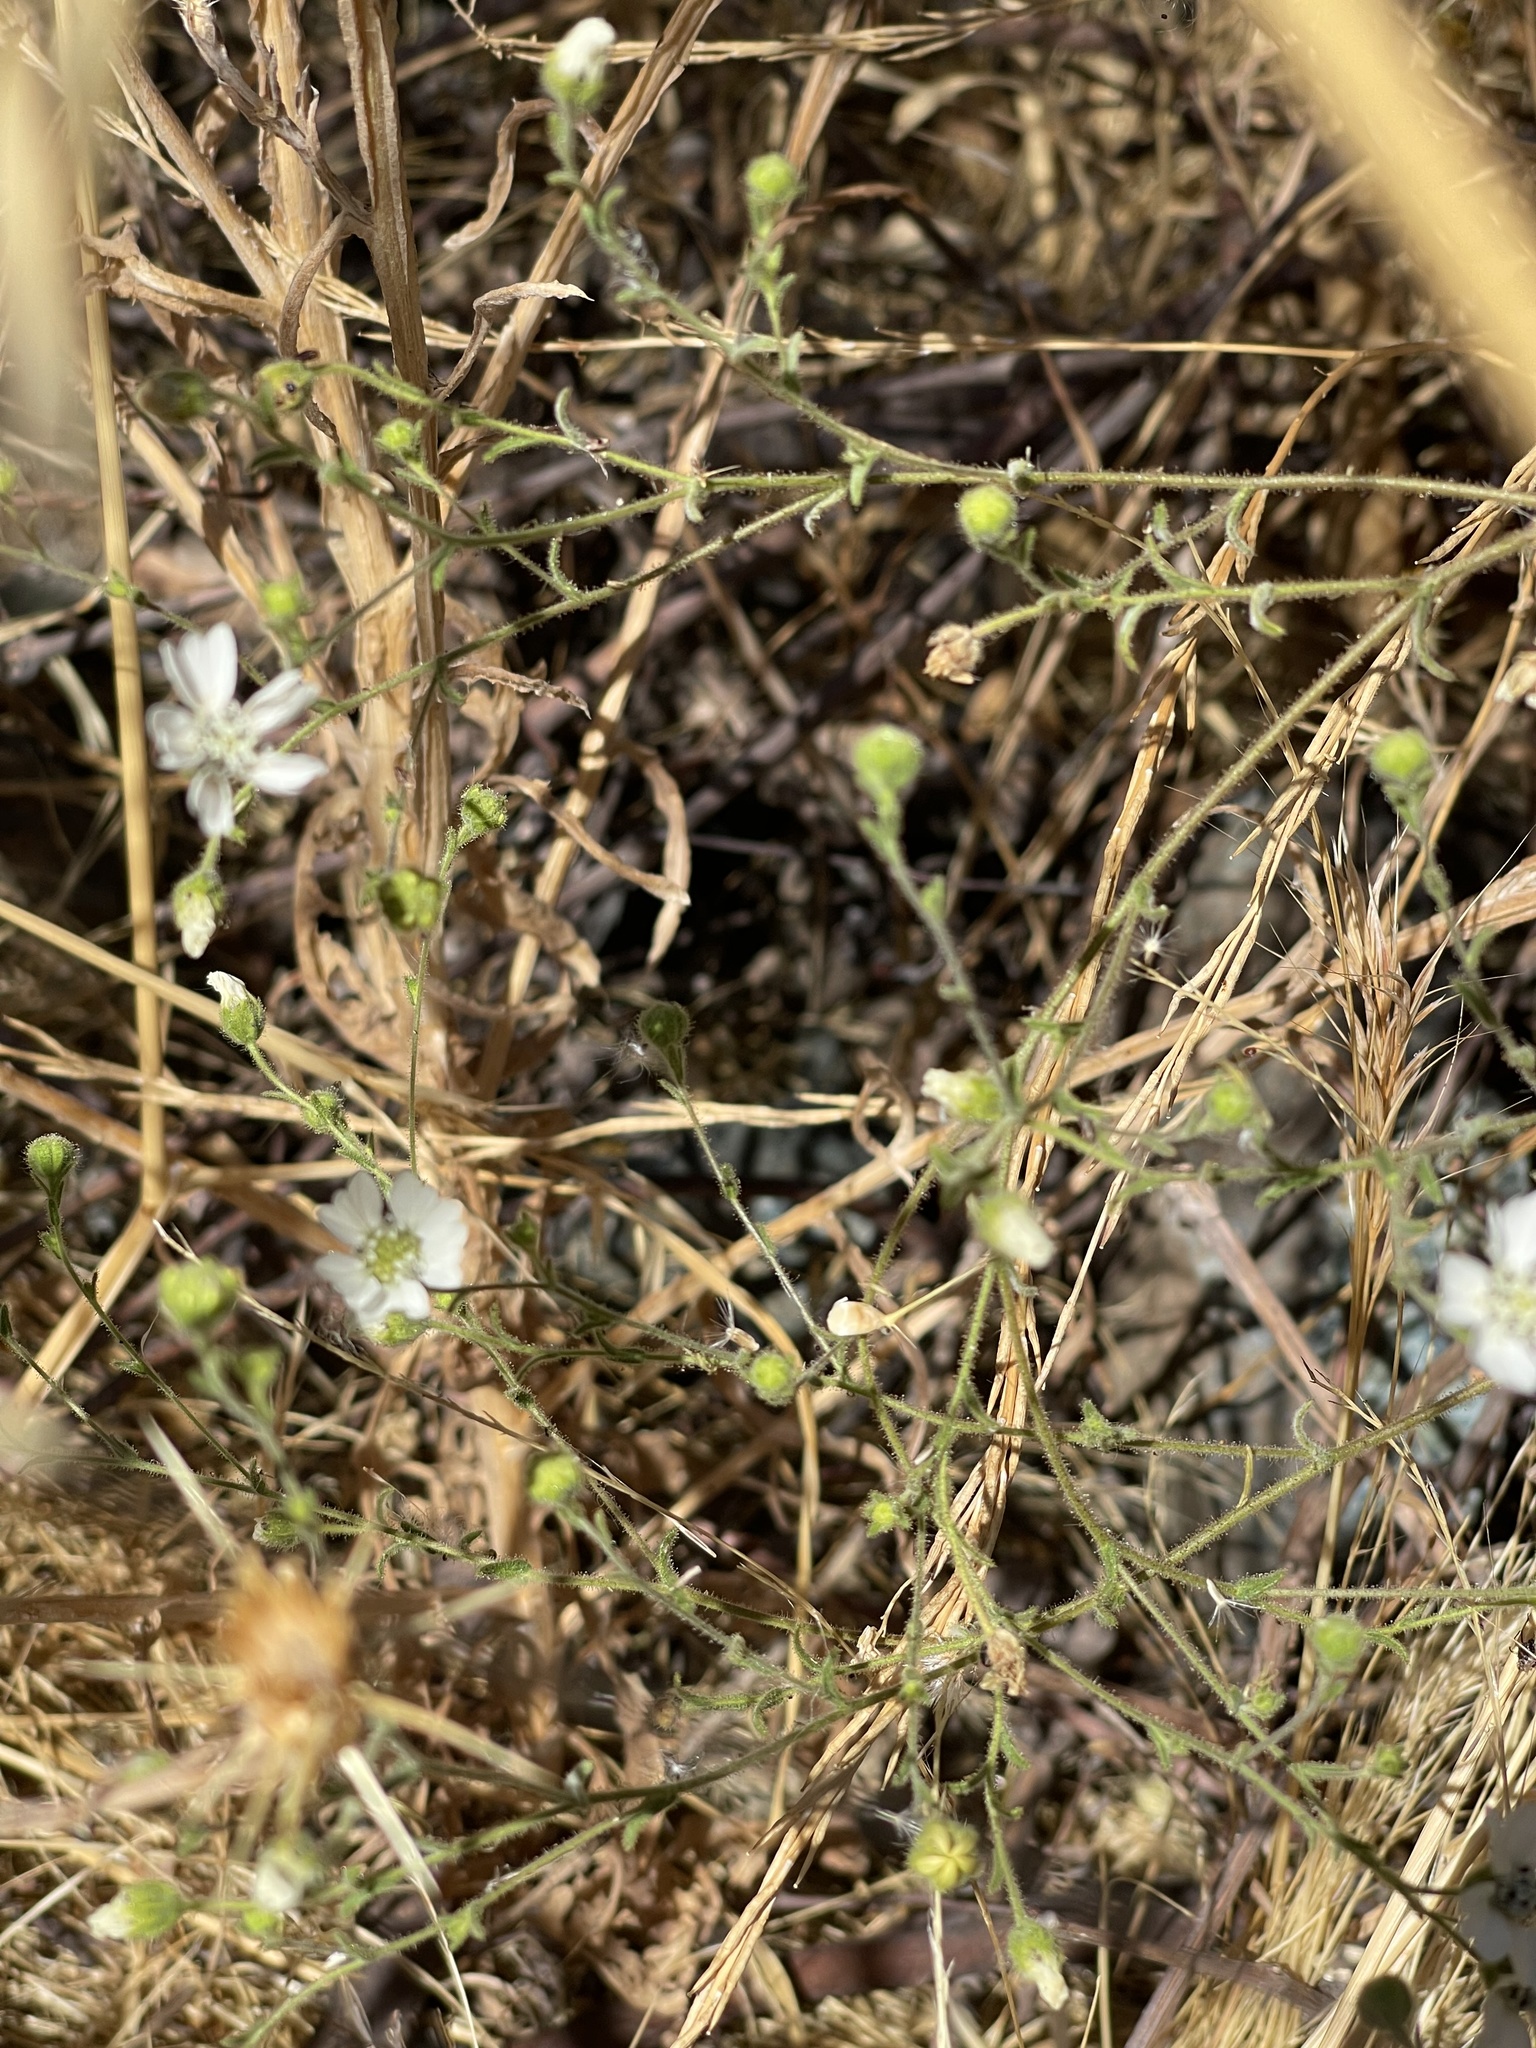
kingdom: Plantae
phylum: Tracheophyta
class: Magnoliopsida
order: Asterales
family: Asteraceae
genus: Hemizonia
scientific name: Hemizonia congesta
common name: Hayfield tarweed
